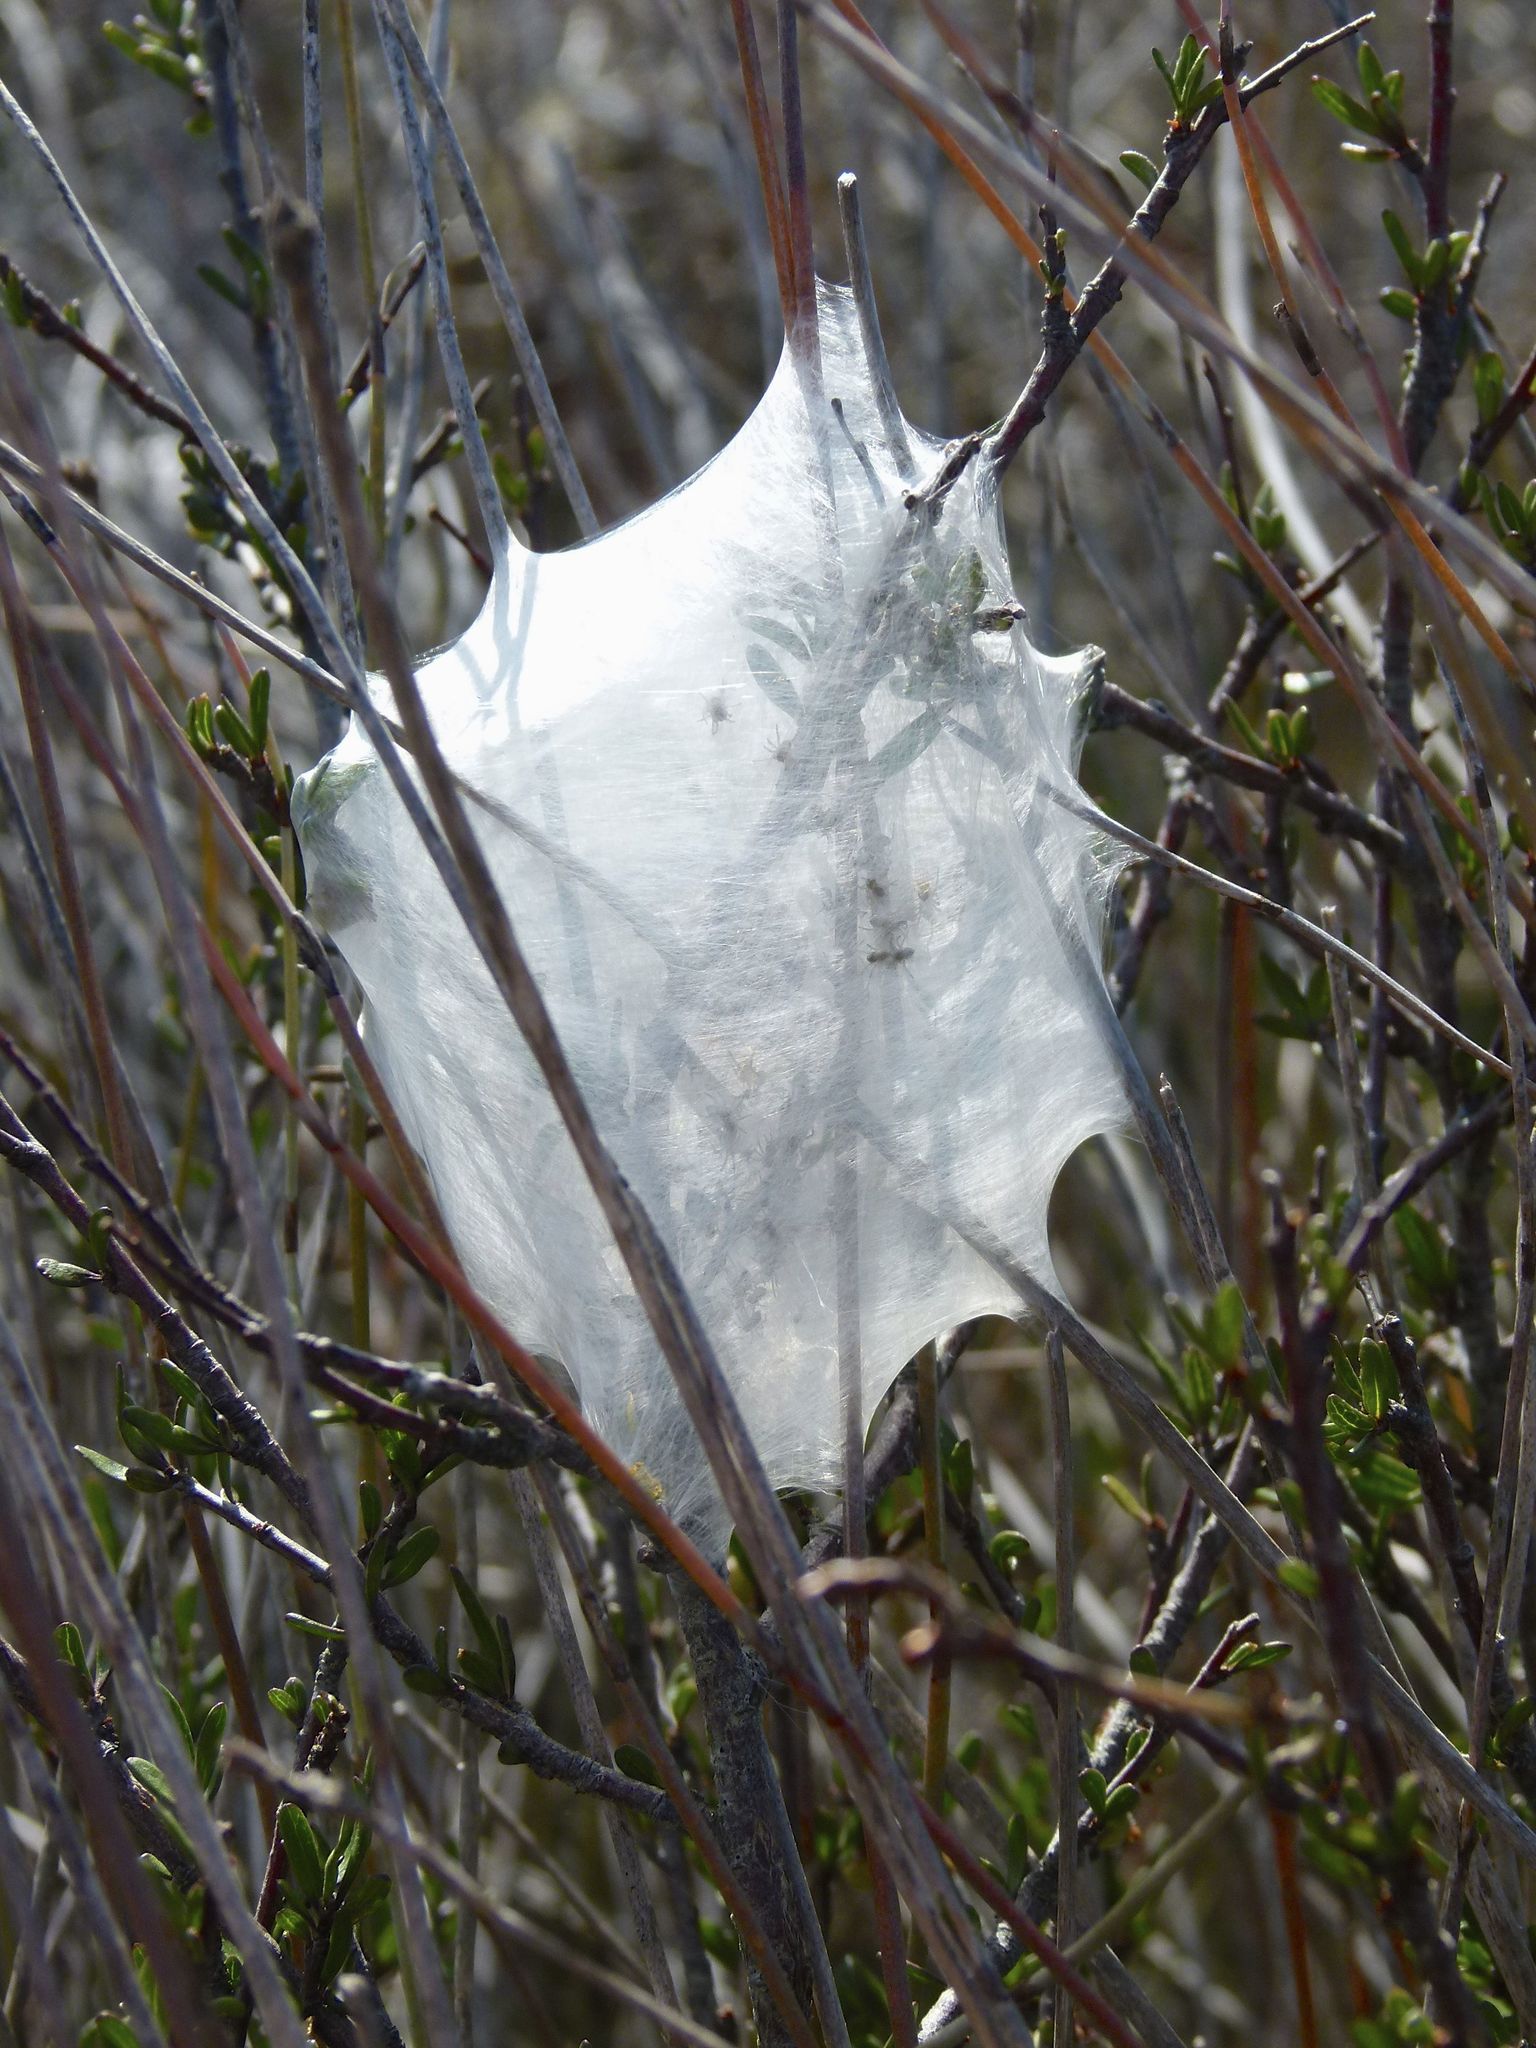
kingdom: Animalia
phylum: Arthropoda
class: Arachnida
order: Araneae
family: Pisauridae
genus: Dolomedes
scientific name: Dolomedes minor
